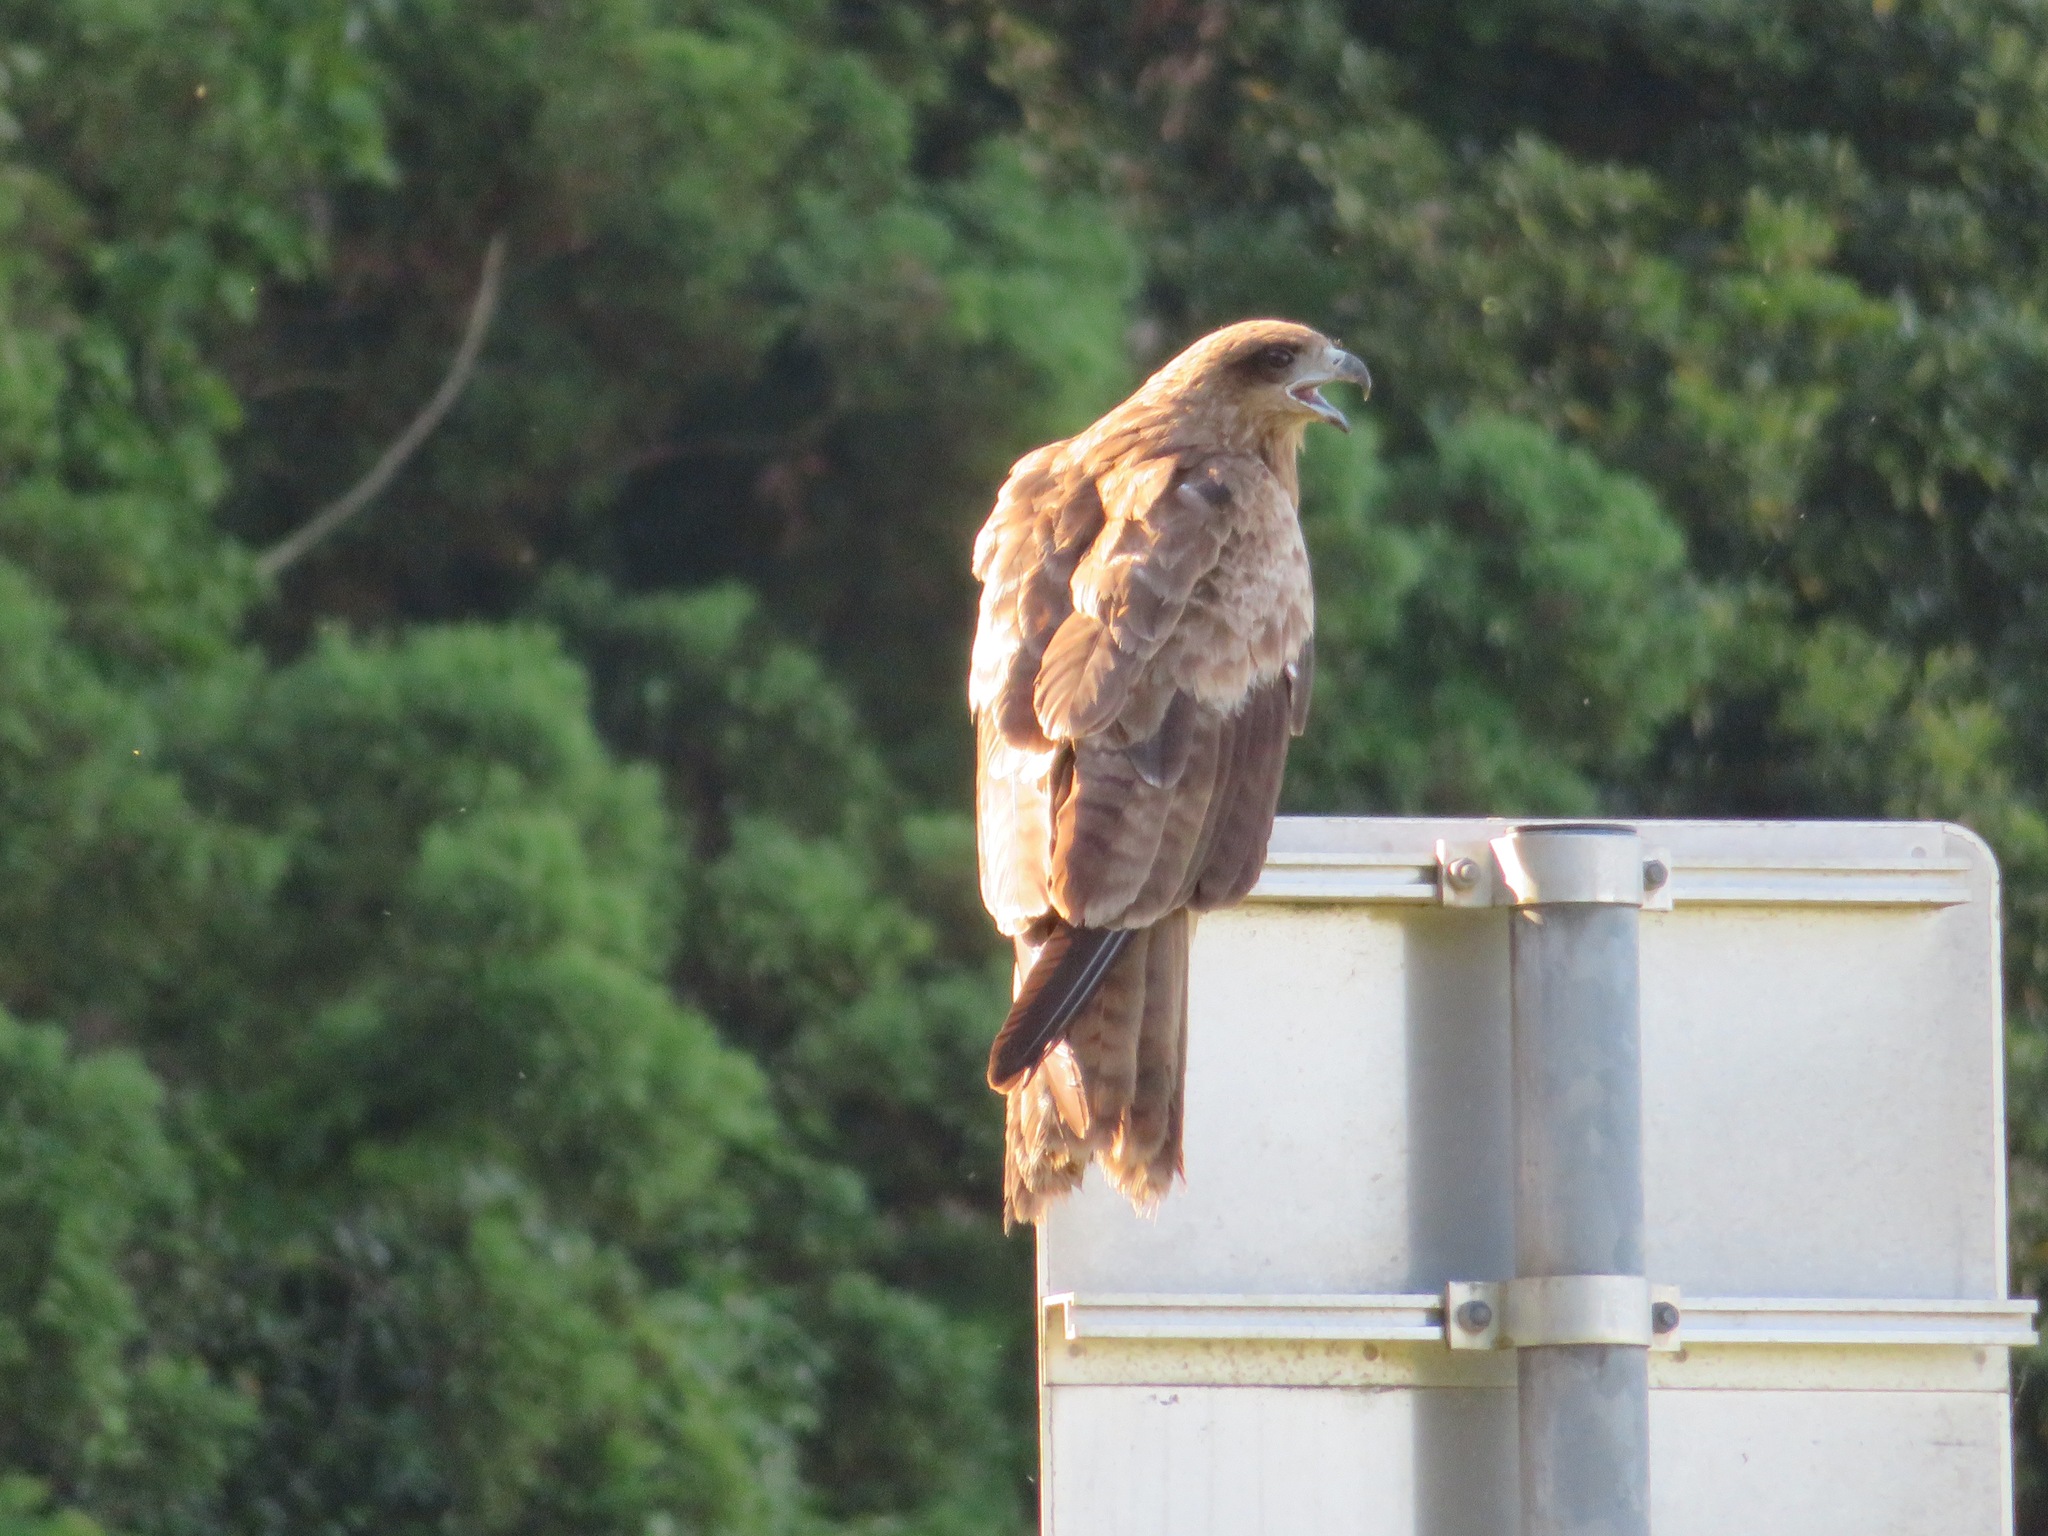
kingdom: Animalia
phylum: Chordata
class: Aves
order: Accipitriformes
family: Accipitridae
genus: Milvus
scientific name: Milvus migrans
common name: Black kite
